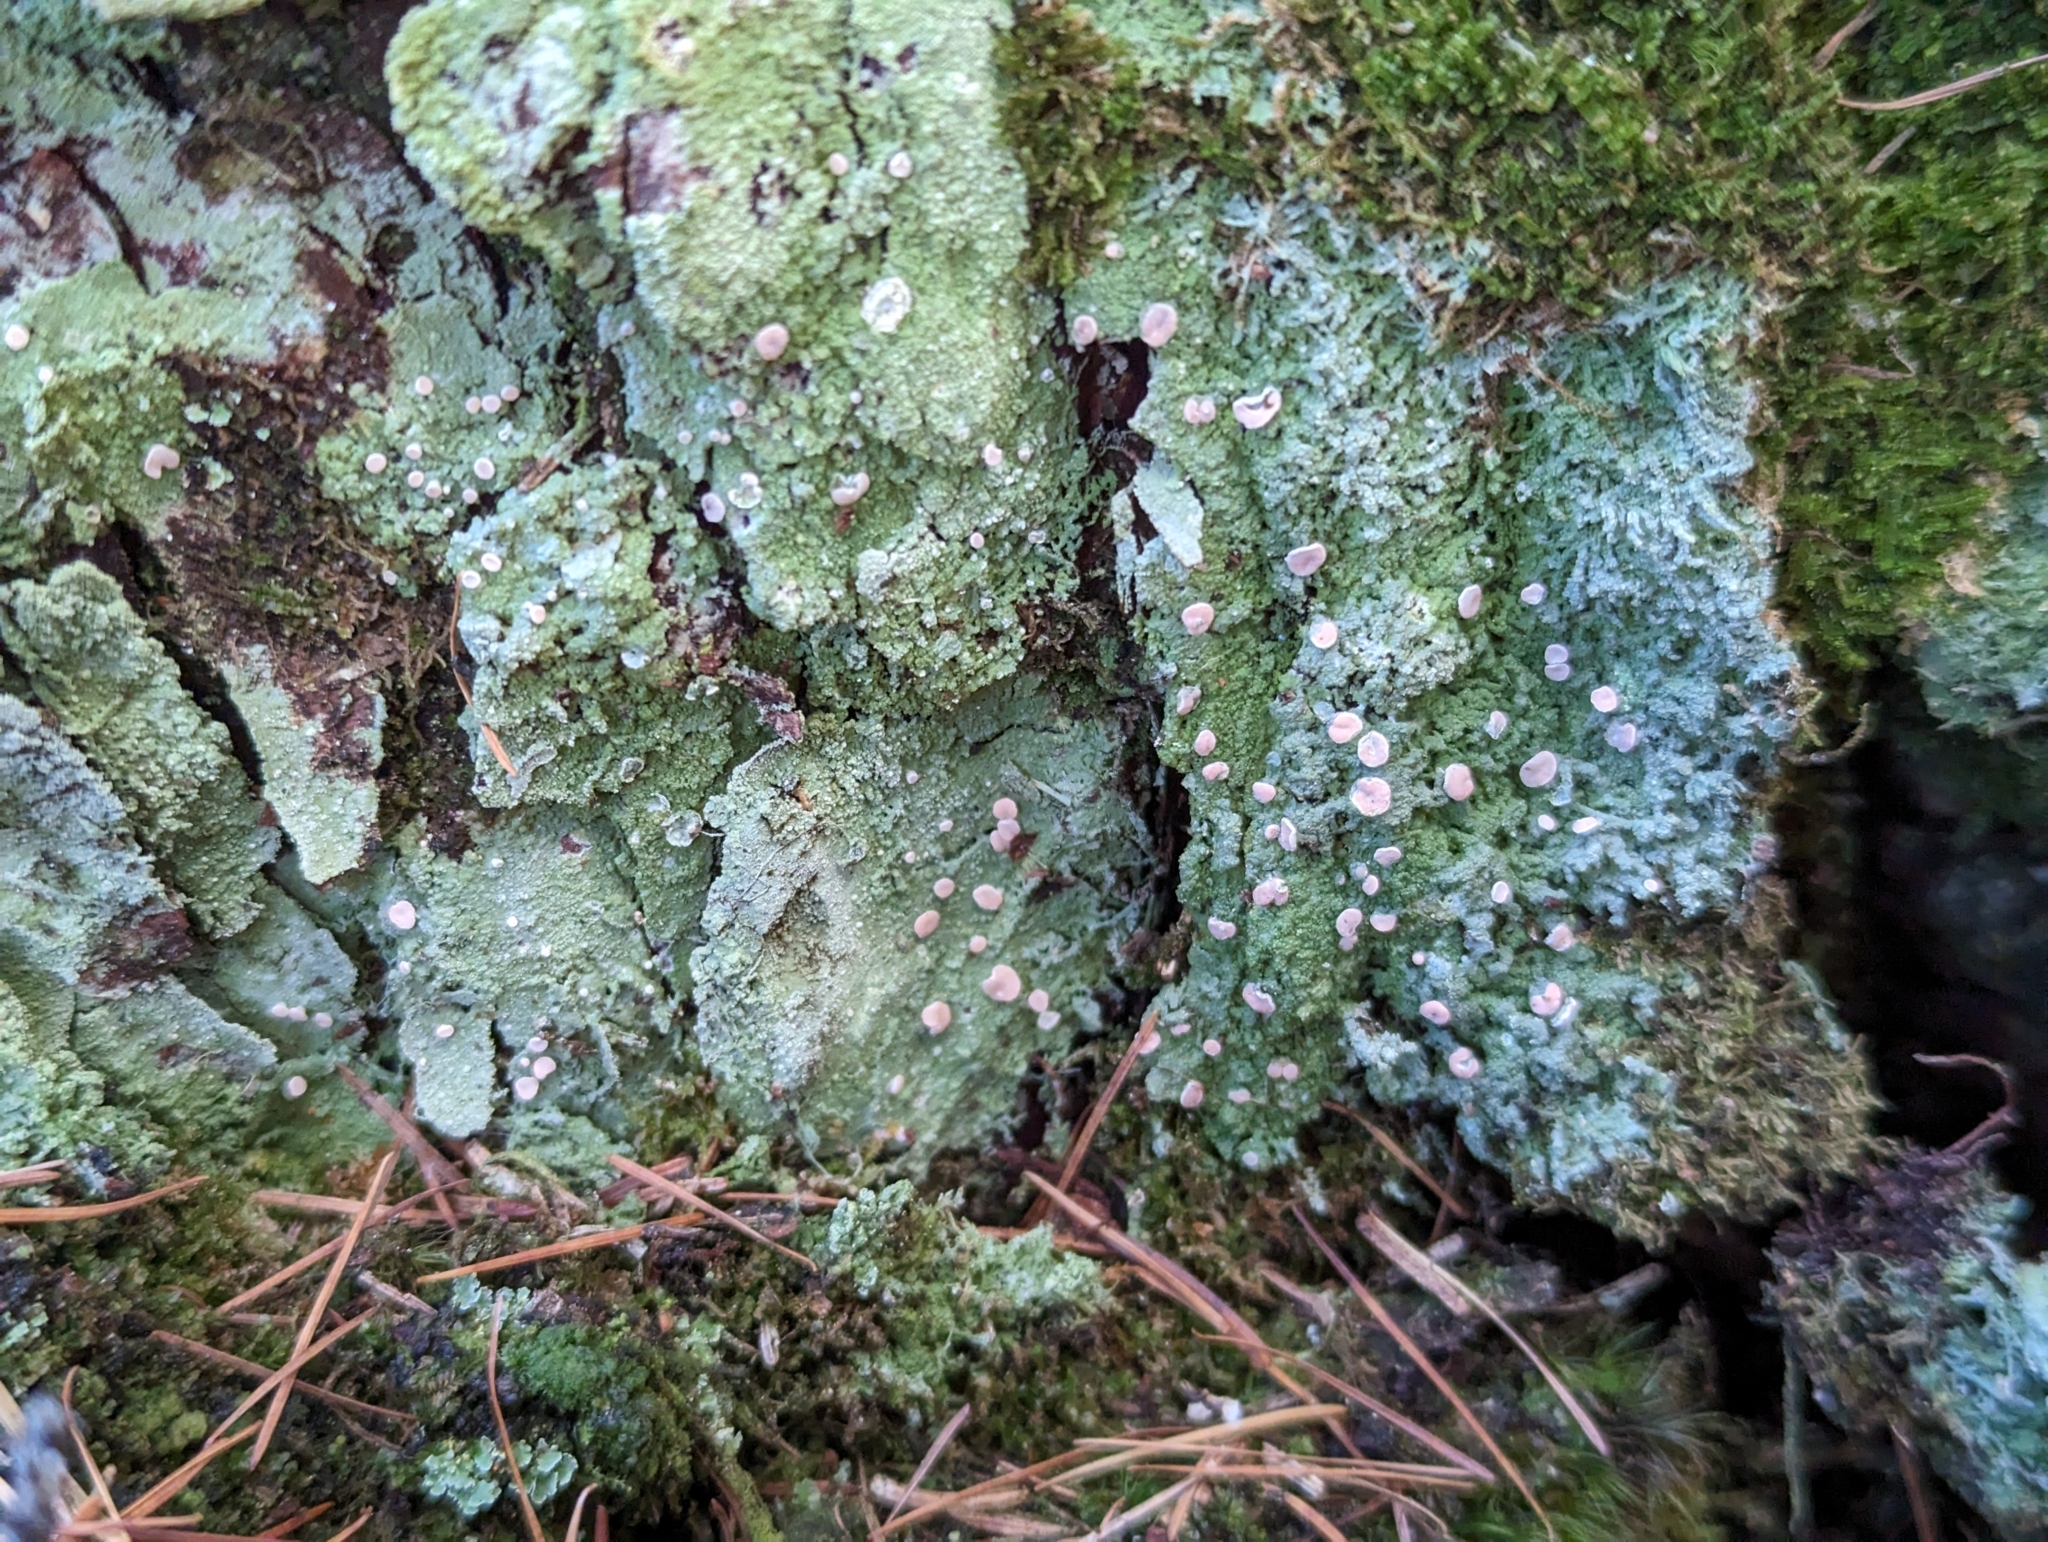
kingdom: Fungi
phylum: Ascomycota
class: Lecanoromycetes
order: Pertusariales
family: Icmadophilaceae
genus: Icmadophila
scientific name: Icmadophila ericetorum
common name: Candy lichen
